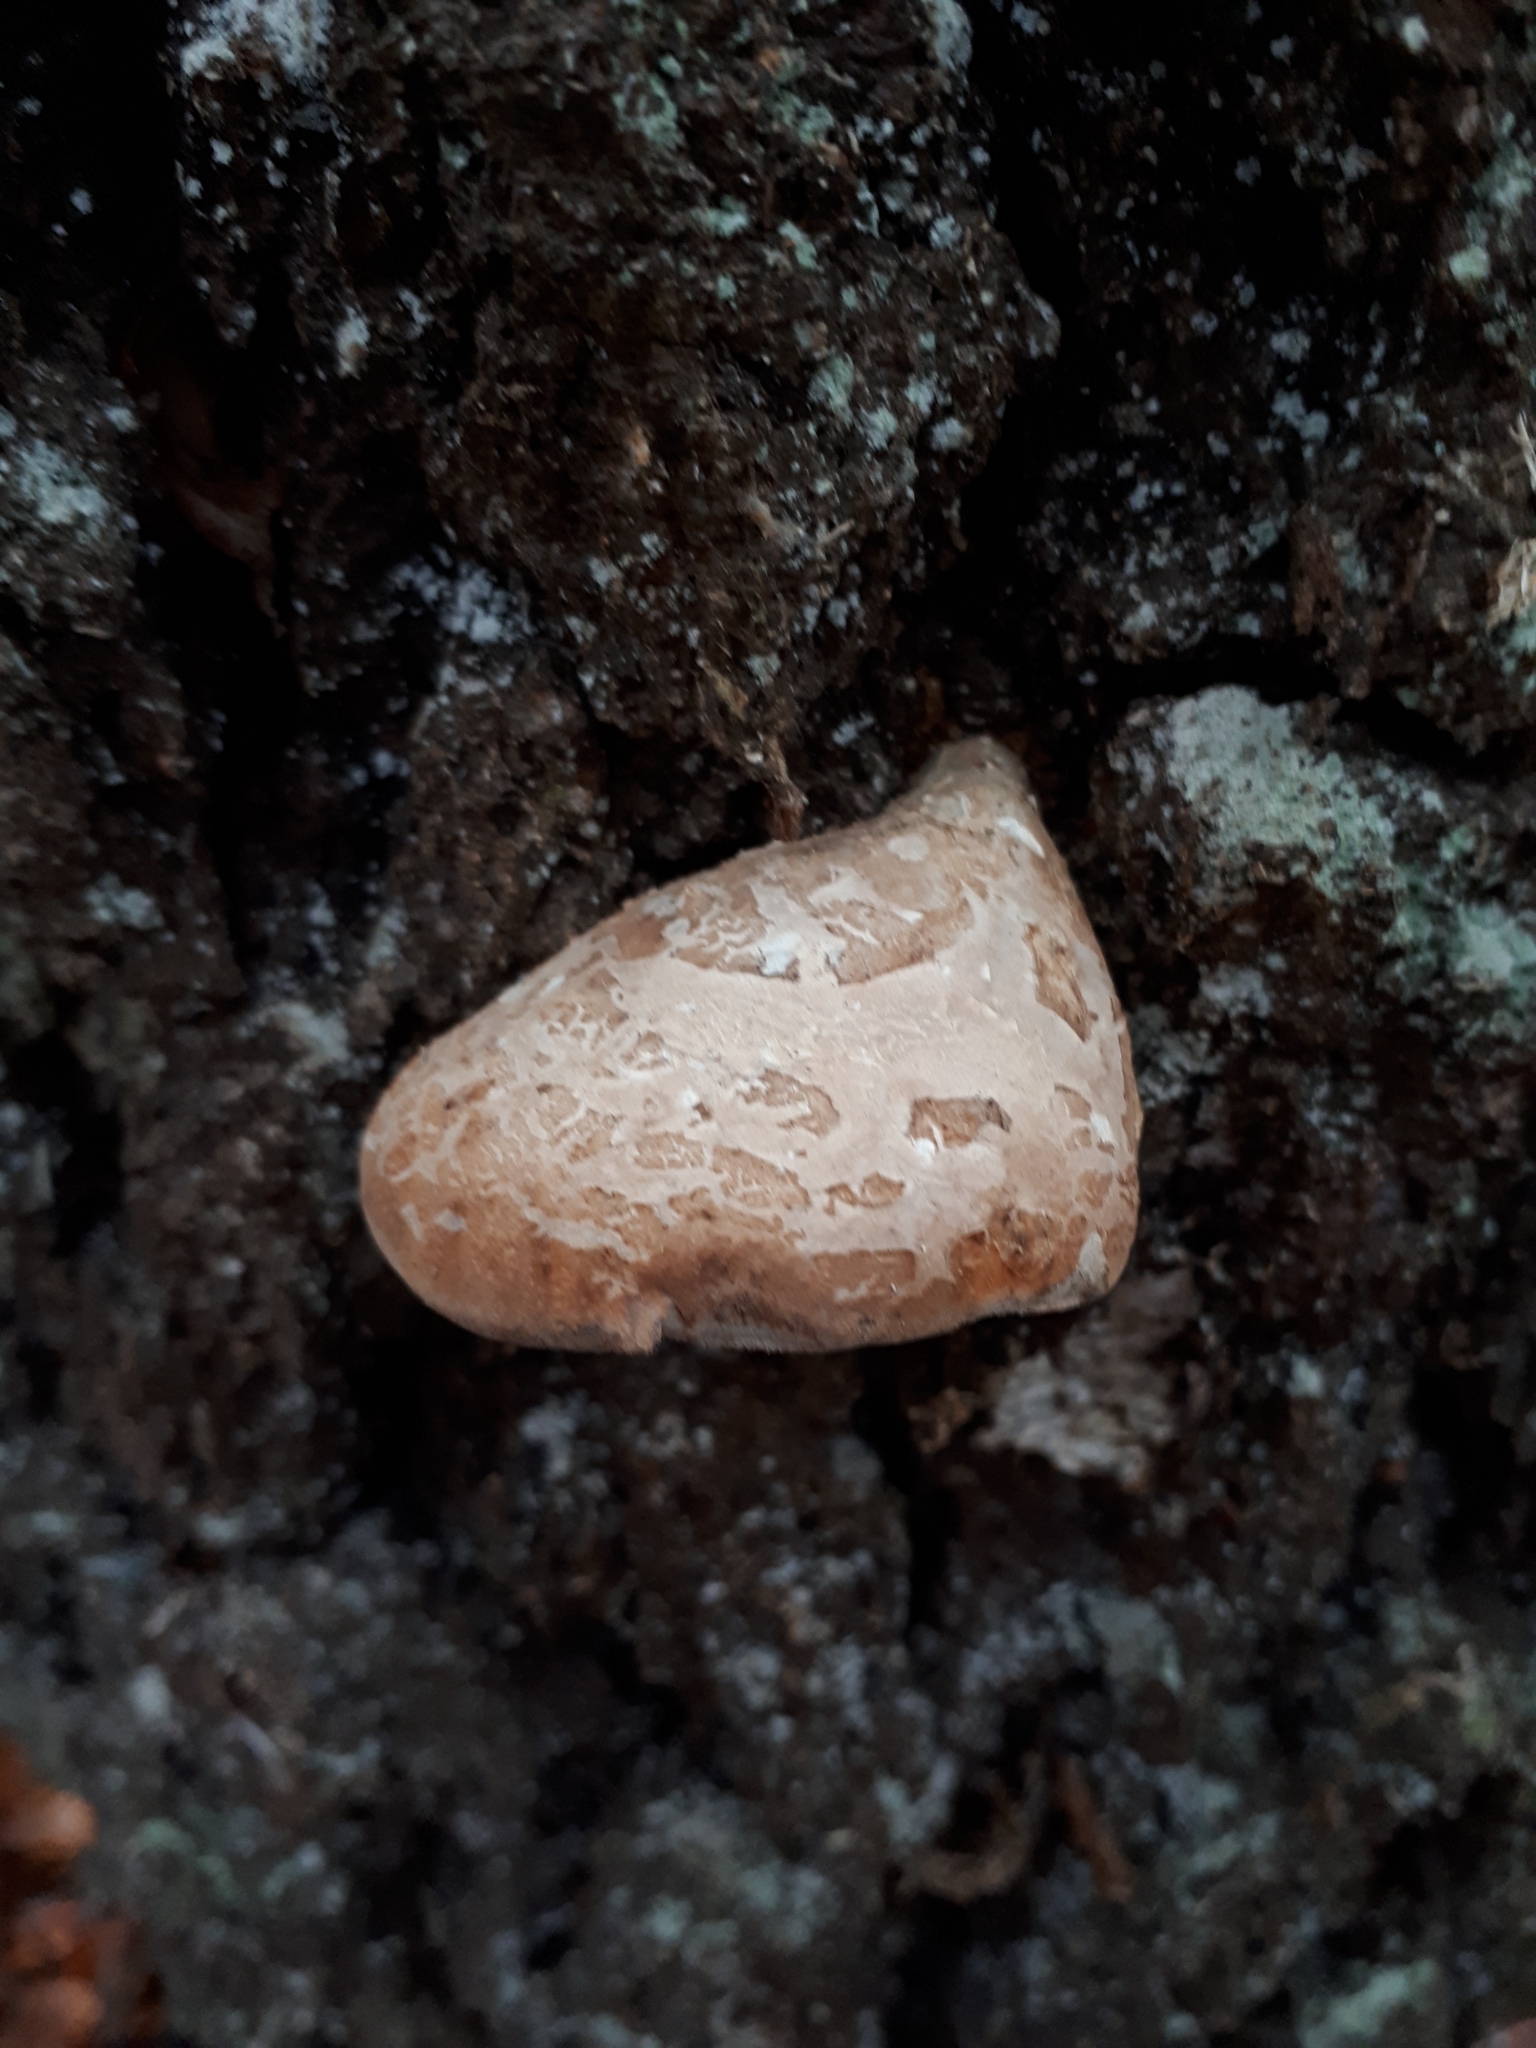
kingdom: Fungi
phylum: Basidiomycota
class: Agaricomycetes
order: Polyporales
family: Fomitopsidaceae
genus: Fomitopsis
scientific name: Fomitopsis betulina
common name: Birch polypore
